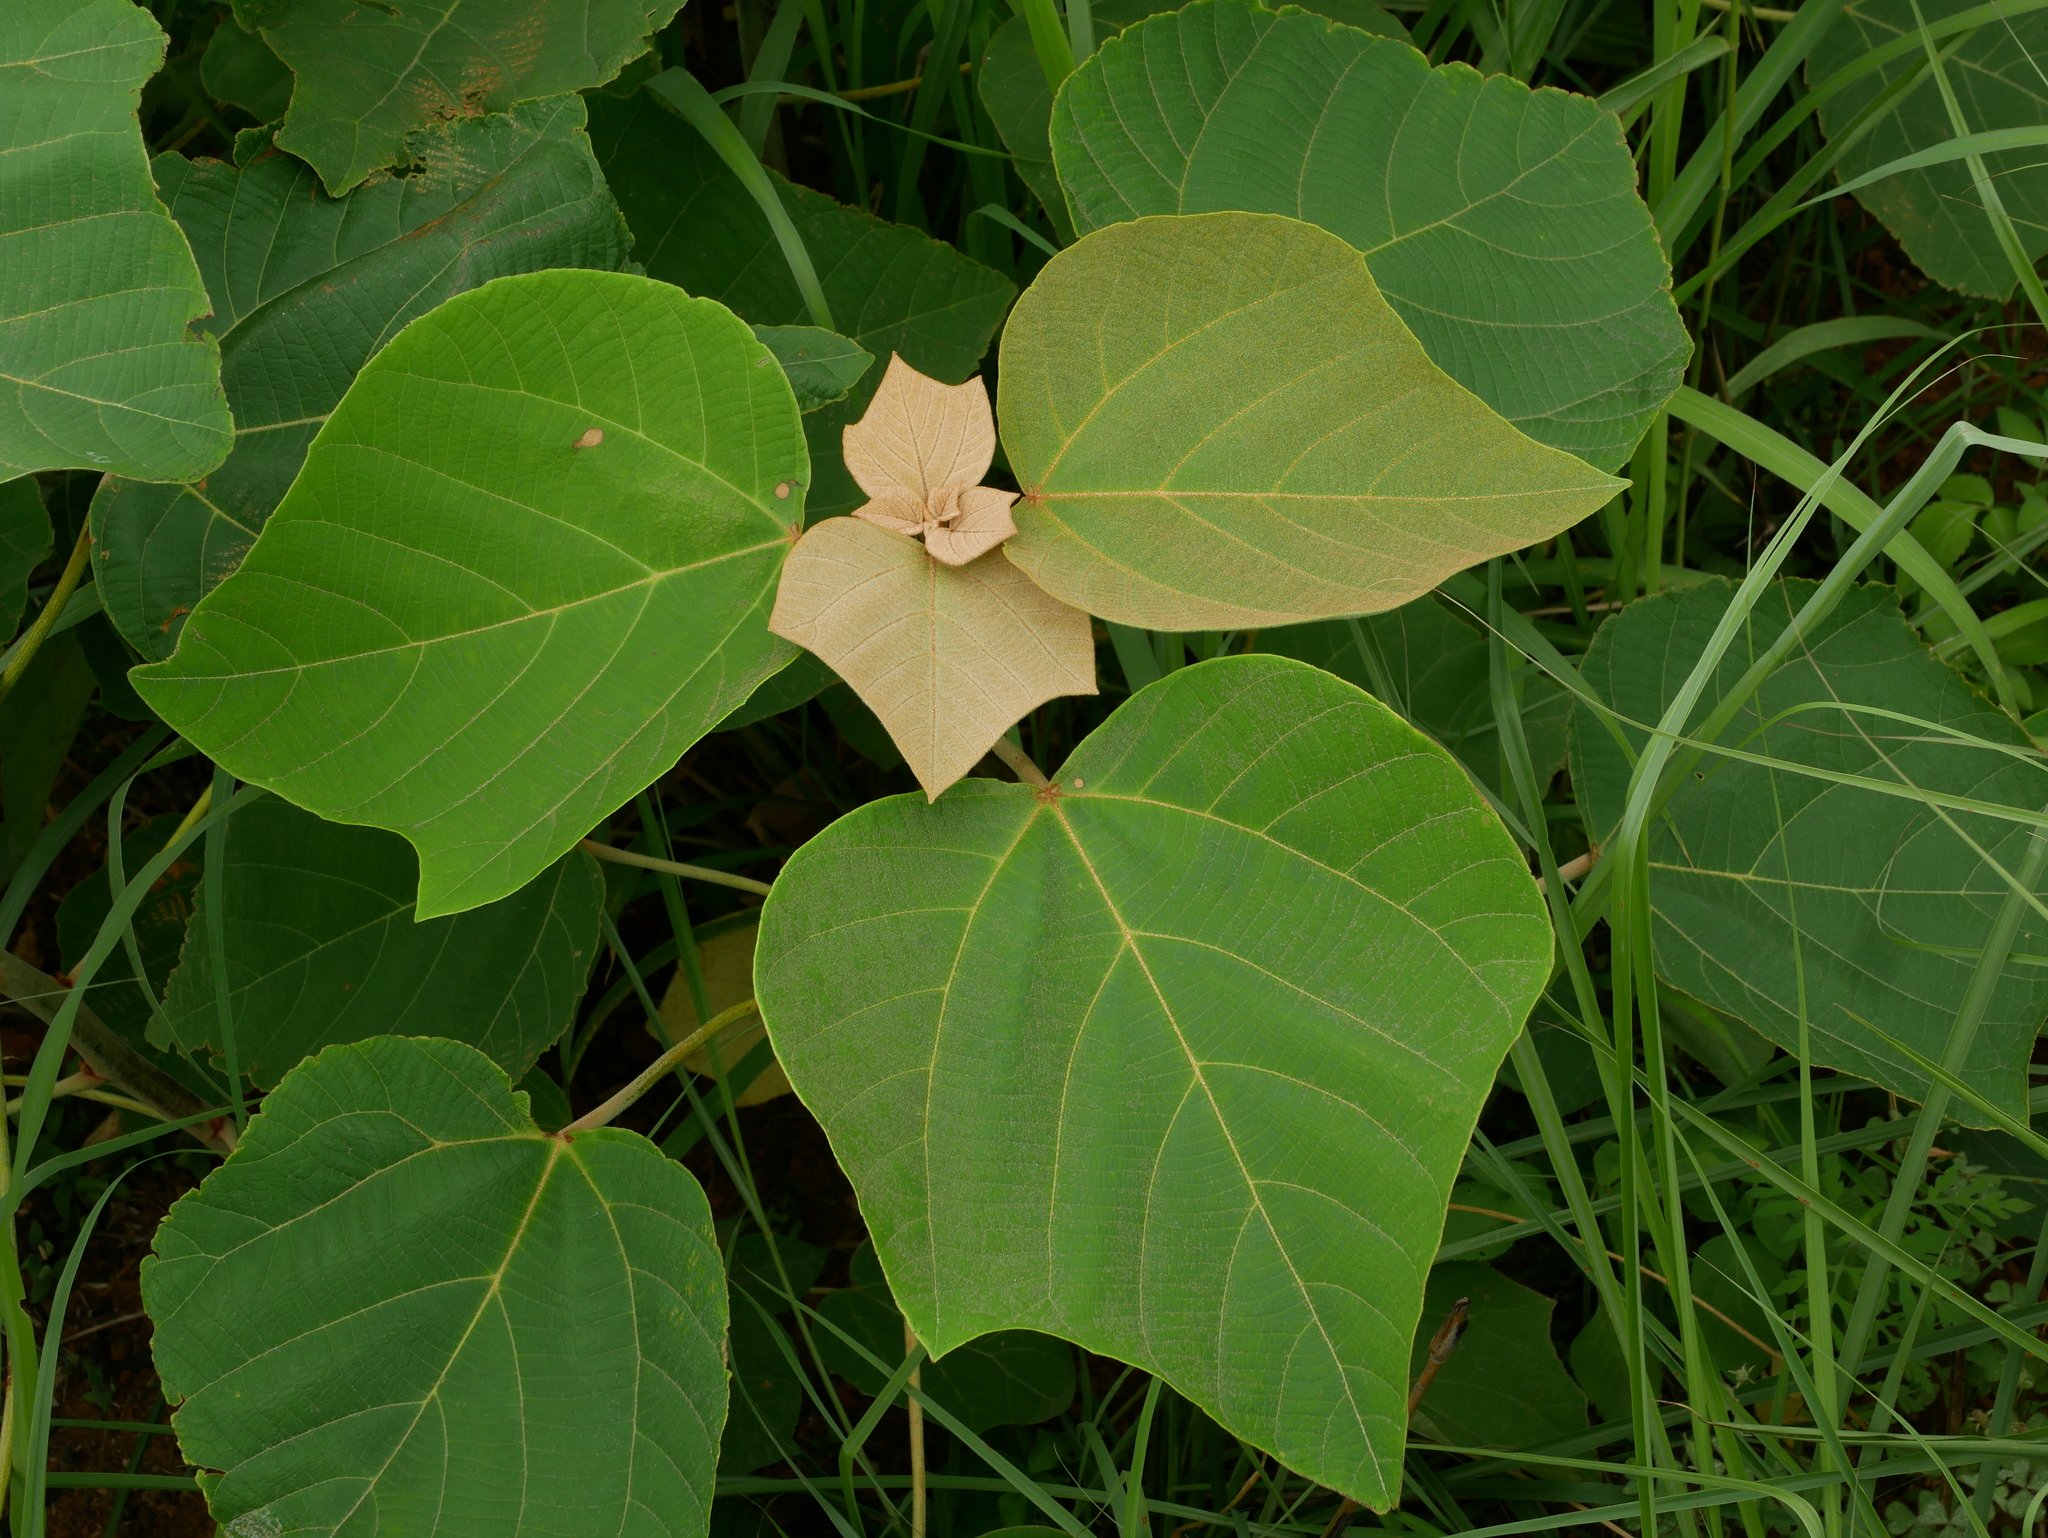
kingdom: Plantae
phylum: Tracheophyta
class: Magnoliopsida
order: Malpighiales
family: Euphorbiaceae
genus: Mallotus
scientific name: Mallotus japonicus
